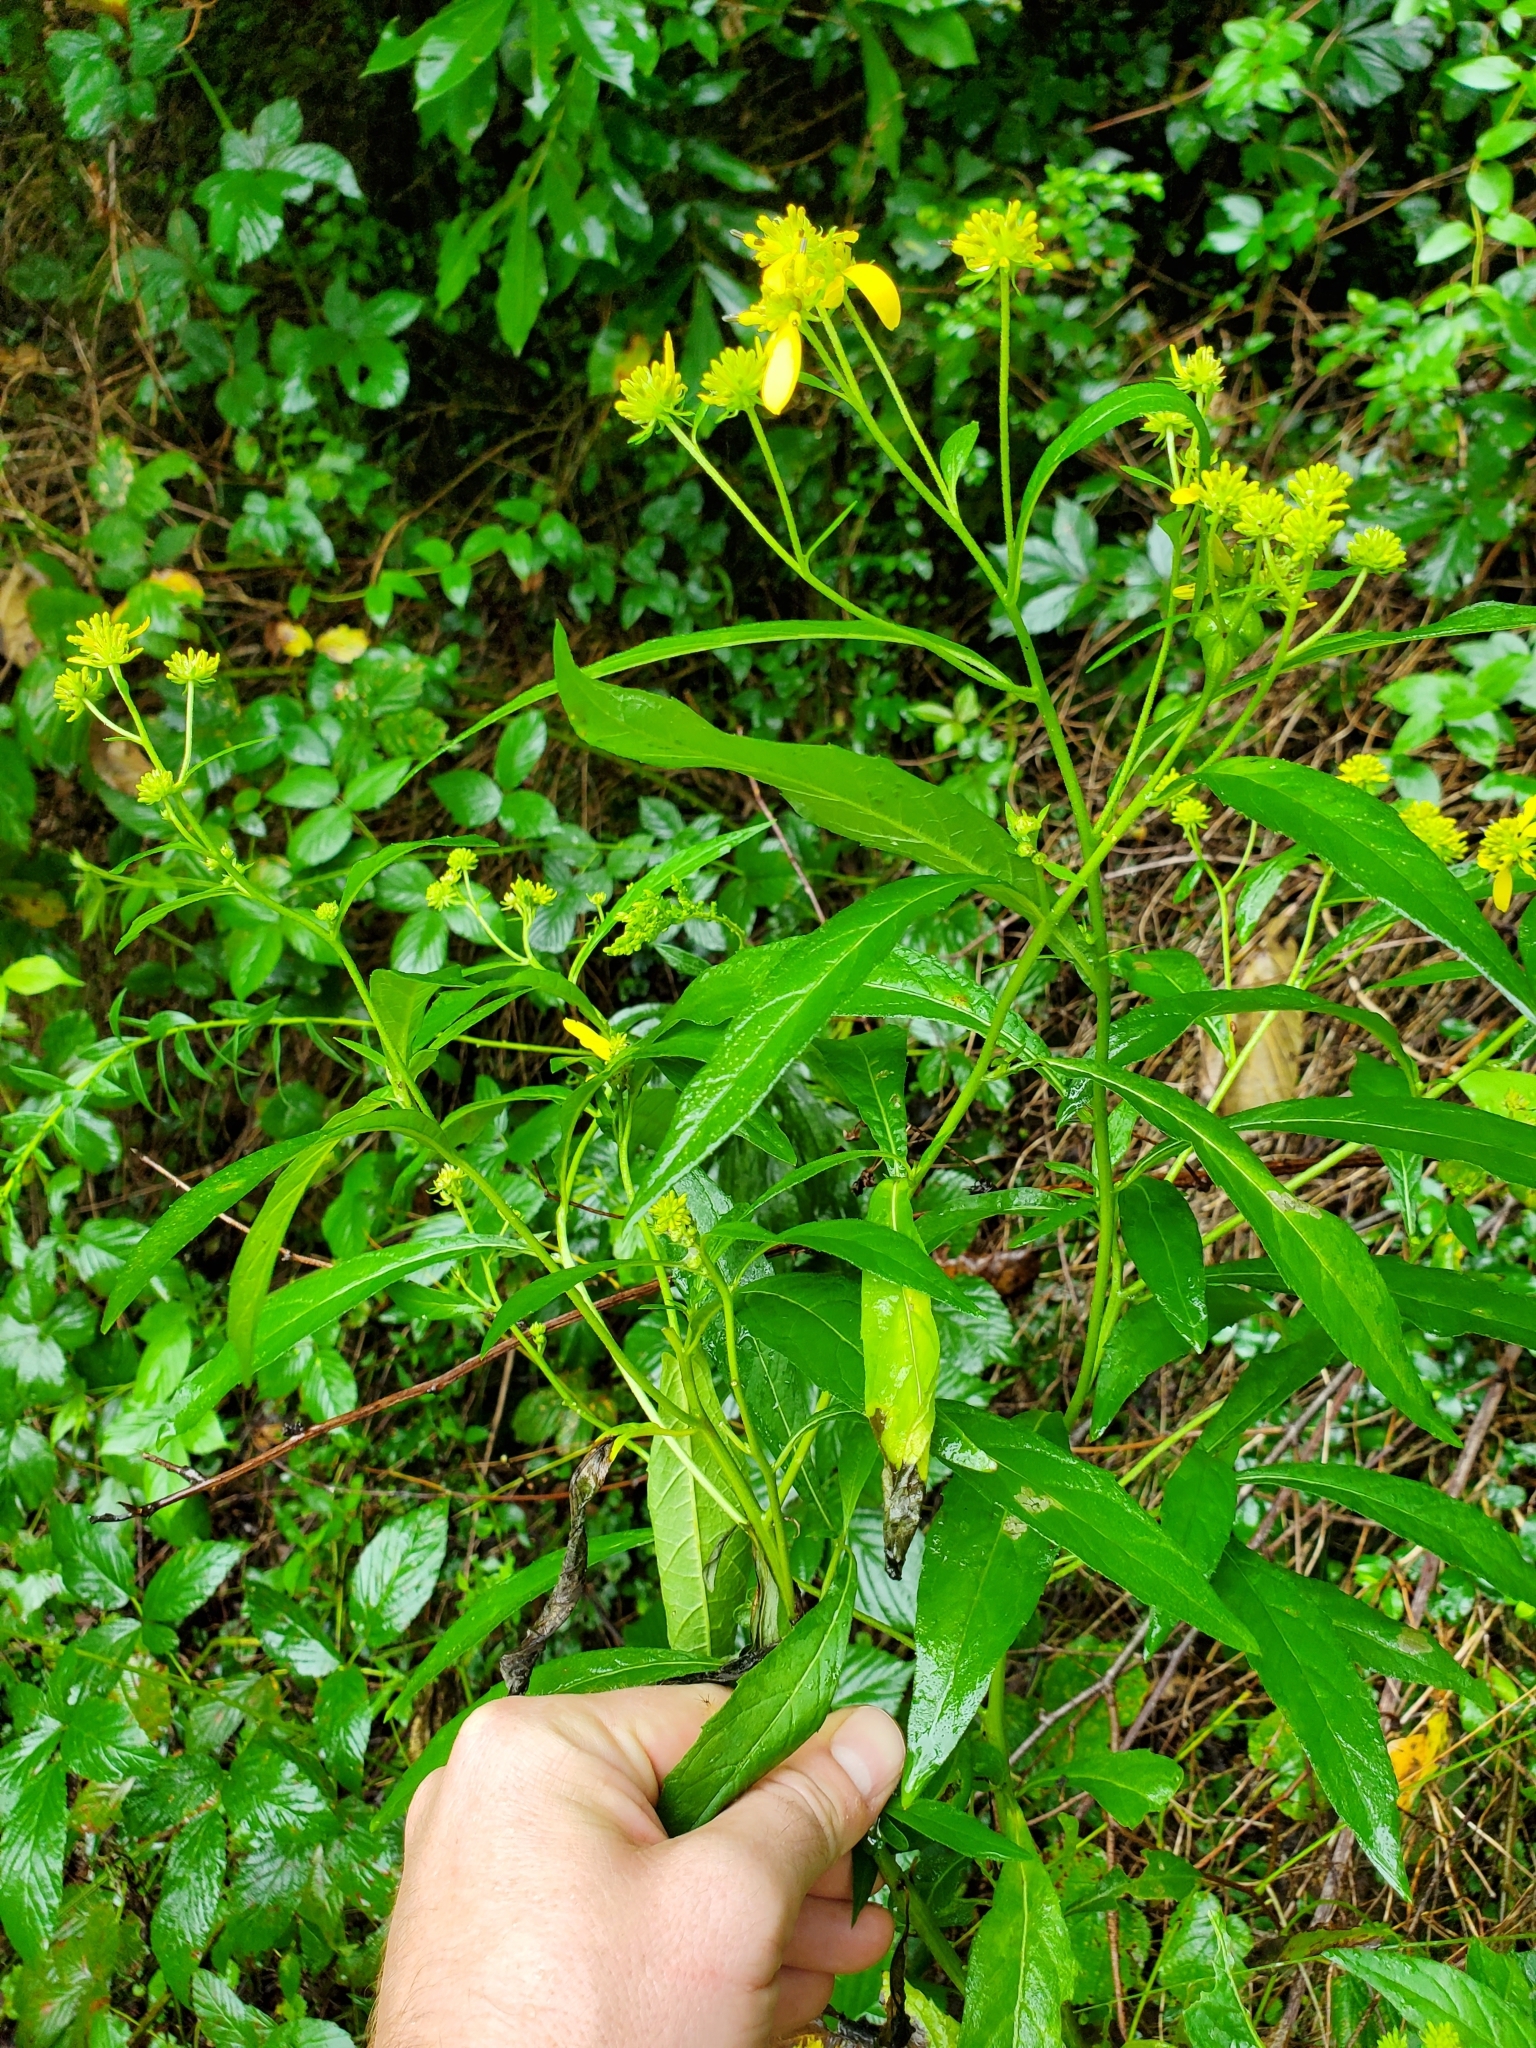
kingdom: Plantae
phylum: Tracheophyta
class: Magnoliopsida
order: Asterales
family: Asteraceae
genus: Verbesina
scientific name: Verbesina alternifolia
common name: Wingstem
